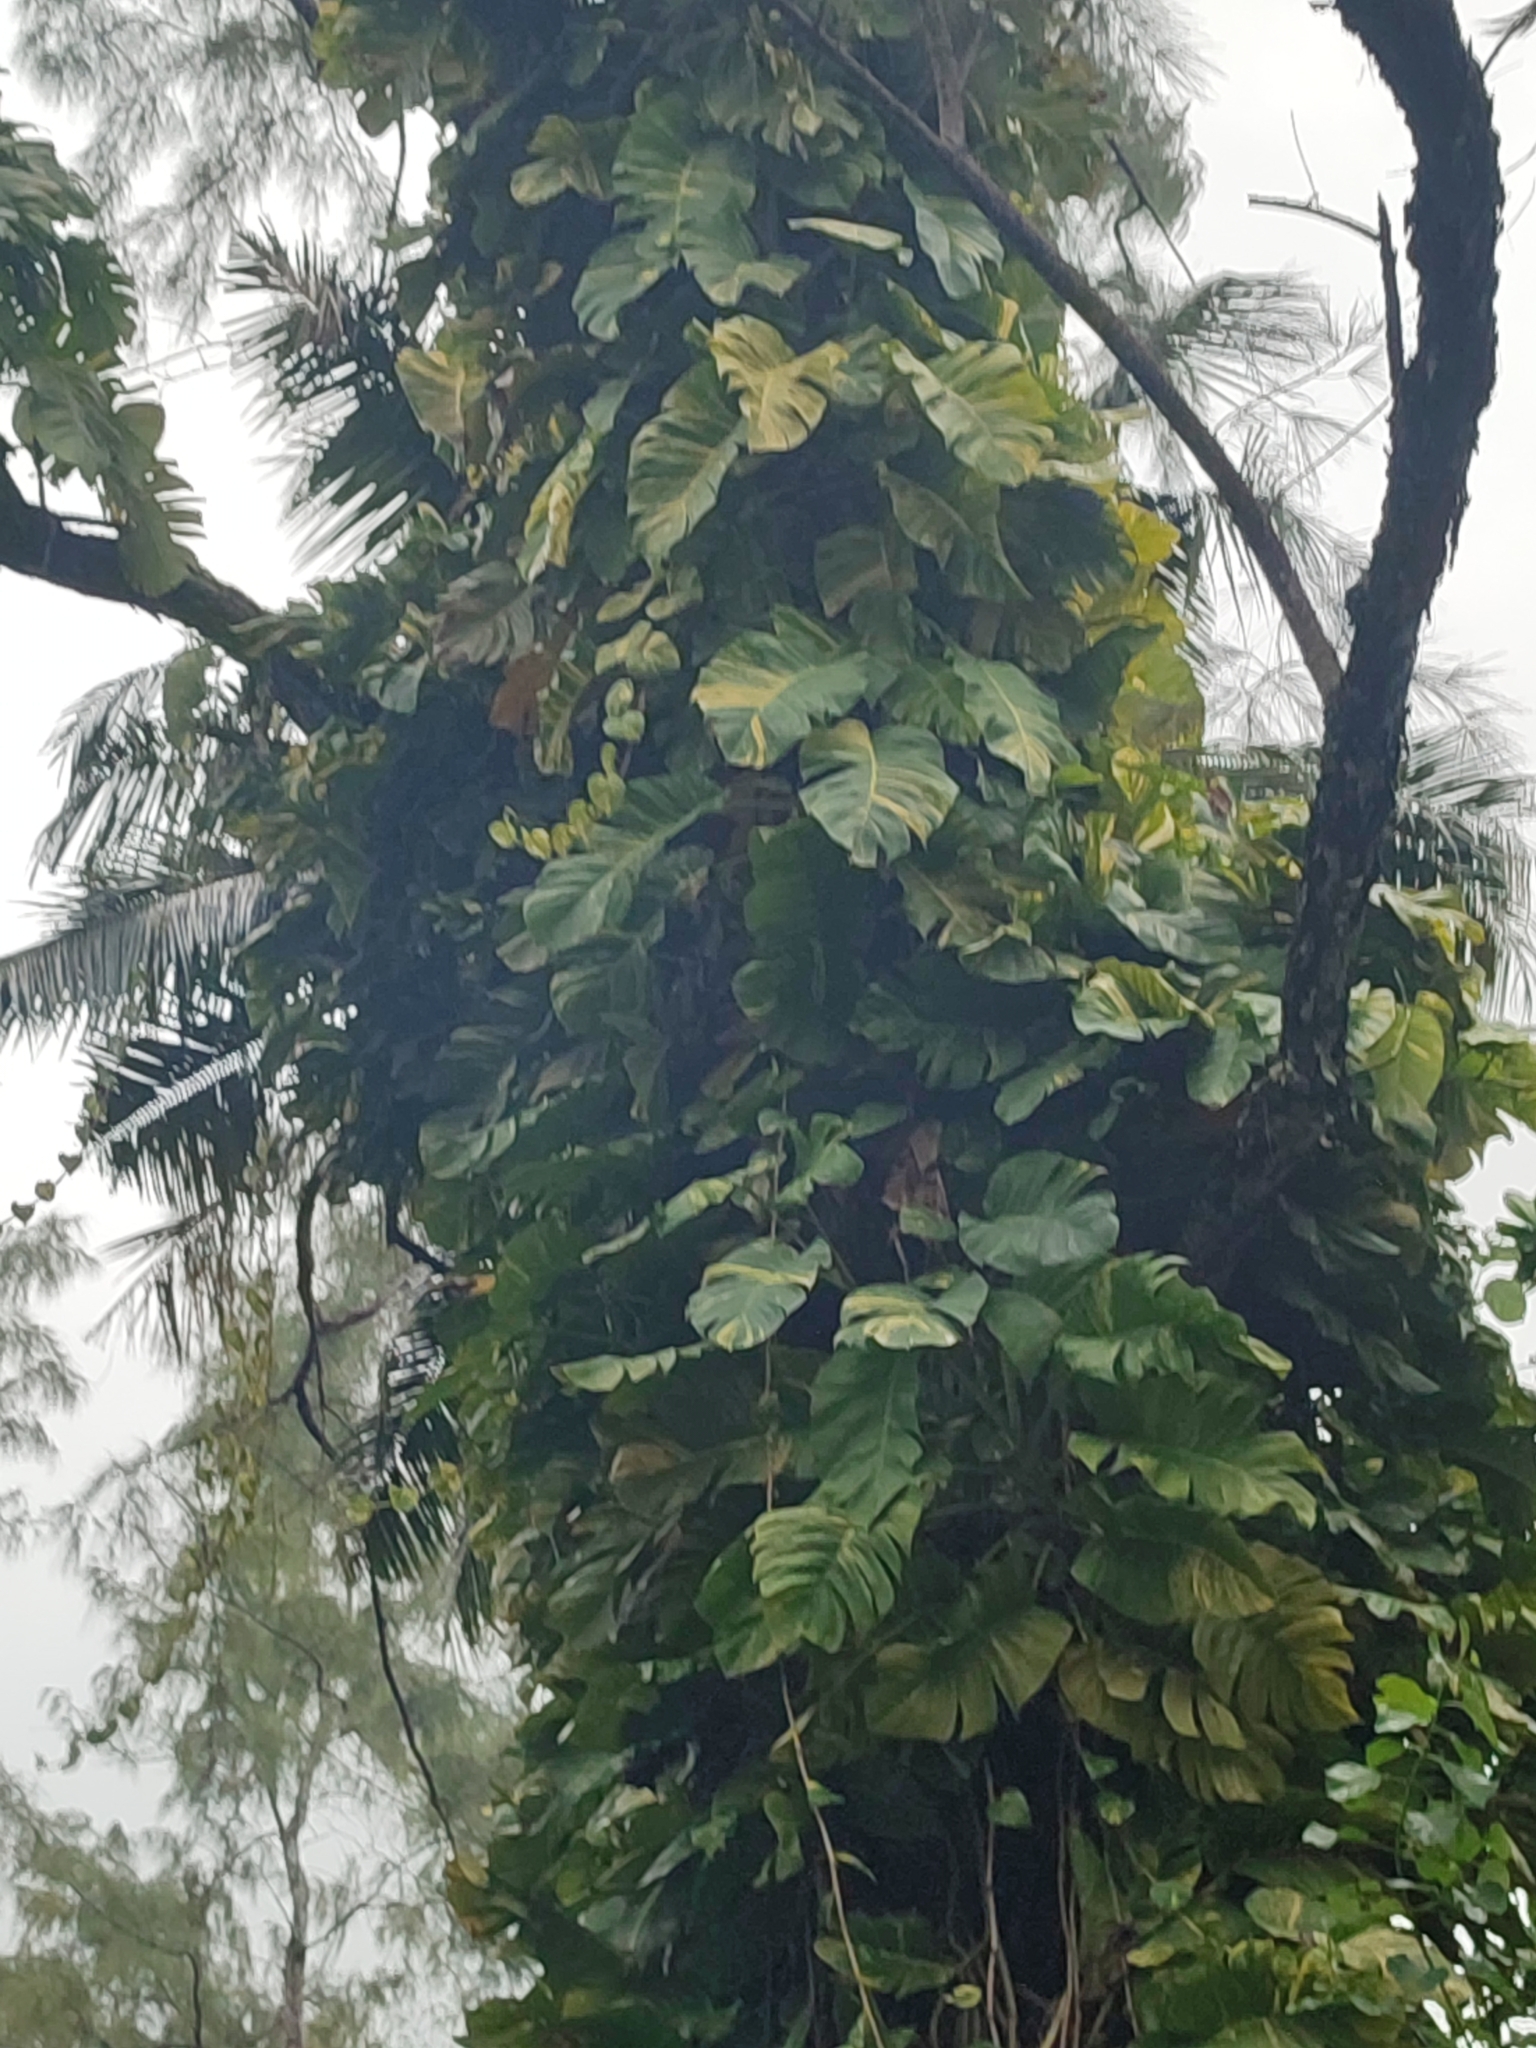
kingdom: Plantae
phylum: Tracheophyta
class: Liliopsida
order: Alismatales
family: Araceae
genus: Epipremnum
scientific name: Epipremnum aureum
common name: Golden hunter's-robe
